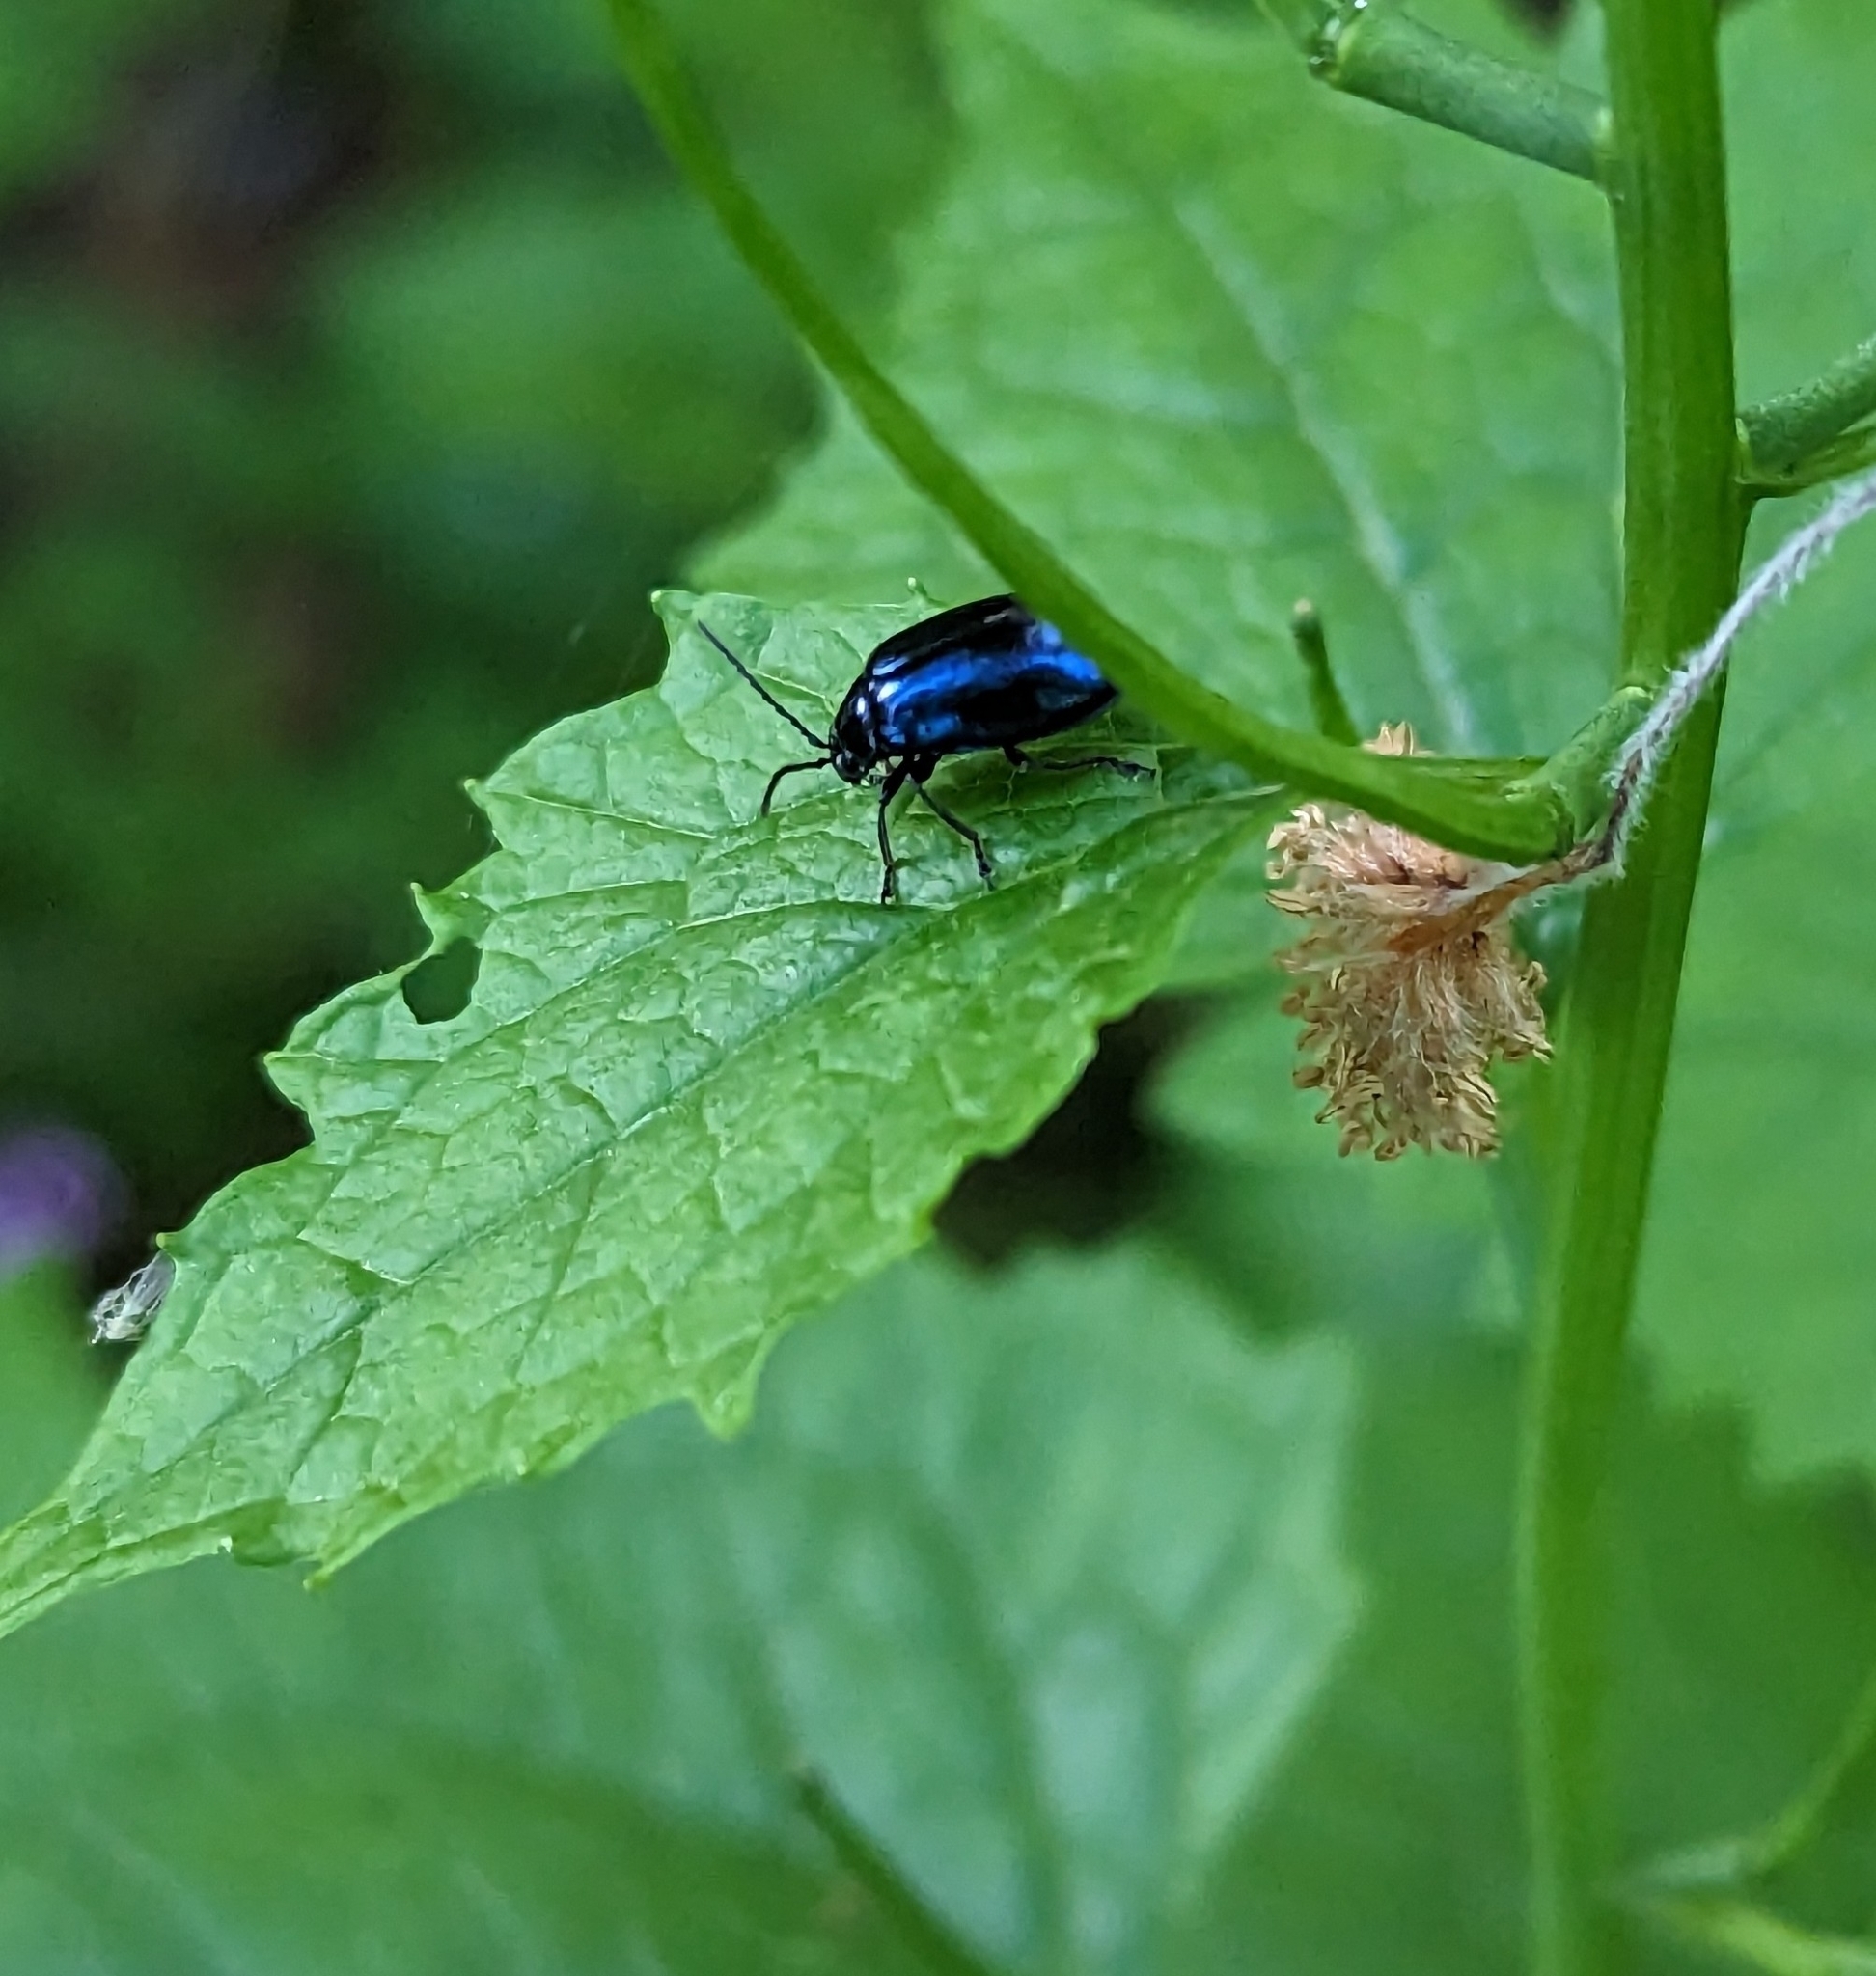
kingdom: Animalia
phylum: Arthropoda
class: Insecta
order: Coleoptera
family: Chrysomelidae
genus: Agelastica
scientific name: Agelastica alni
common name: Alder leaf beetle
